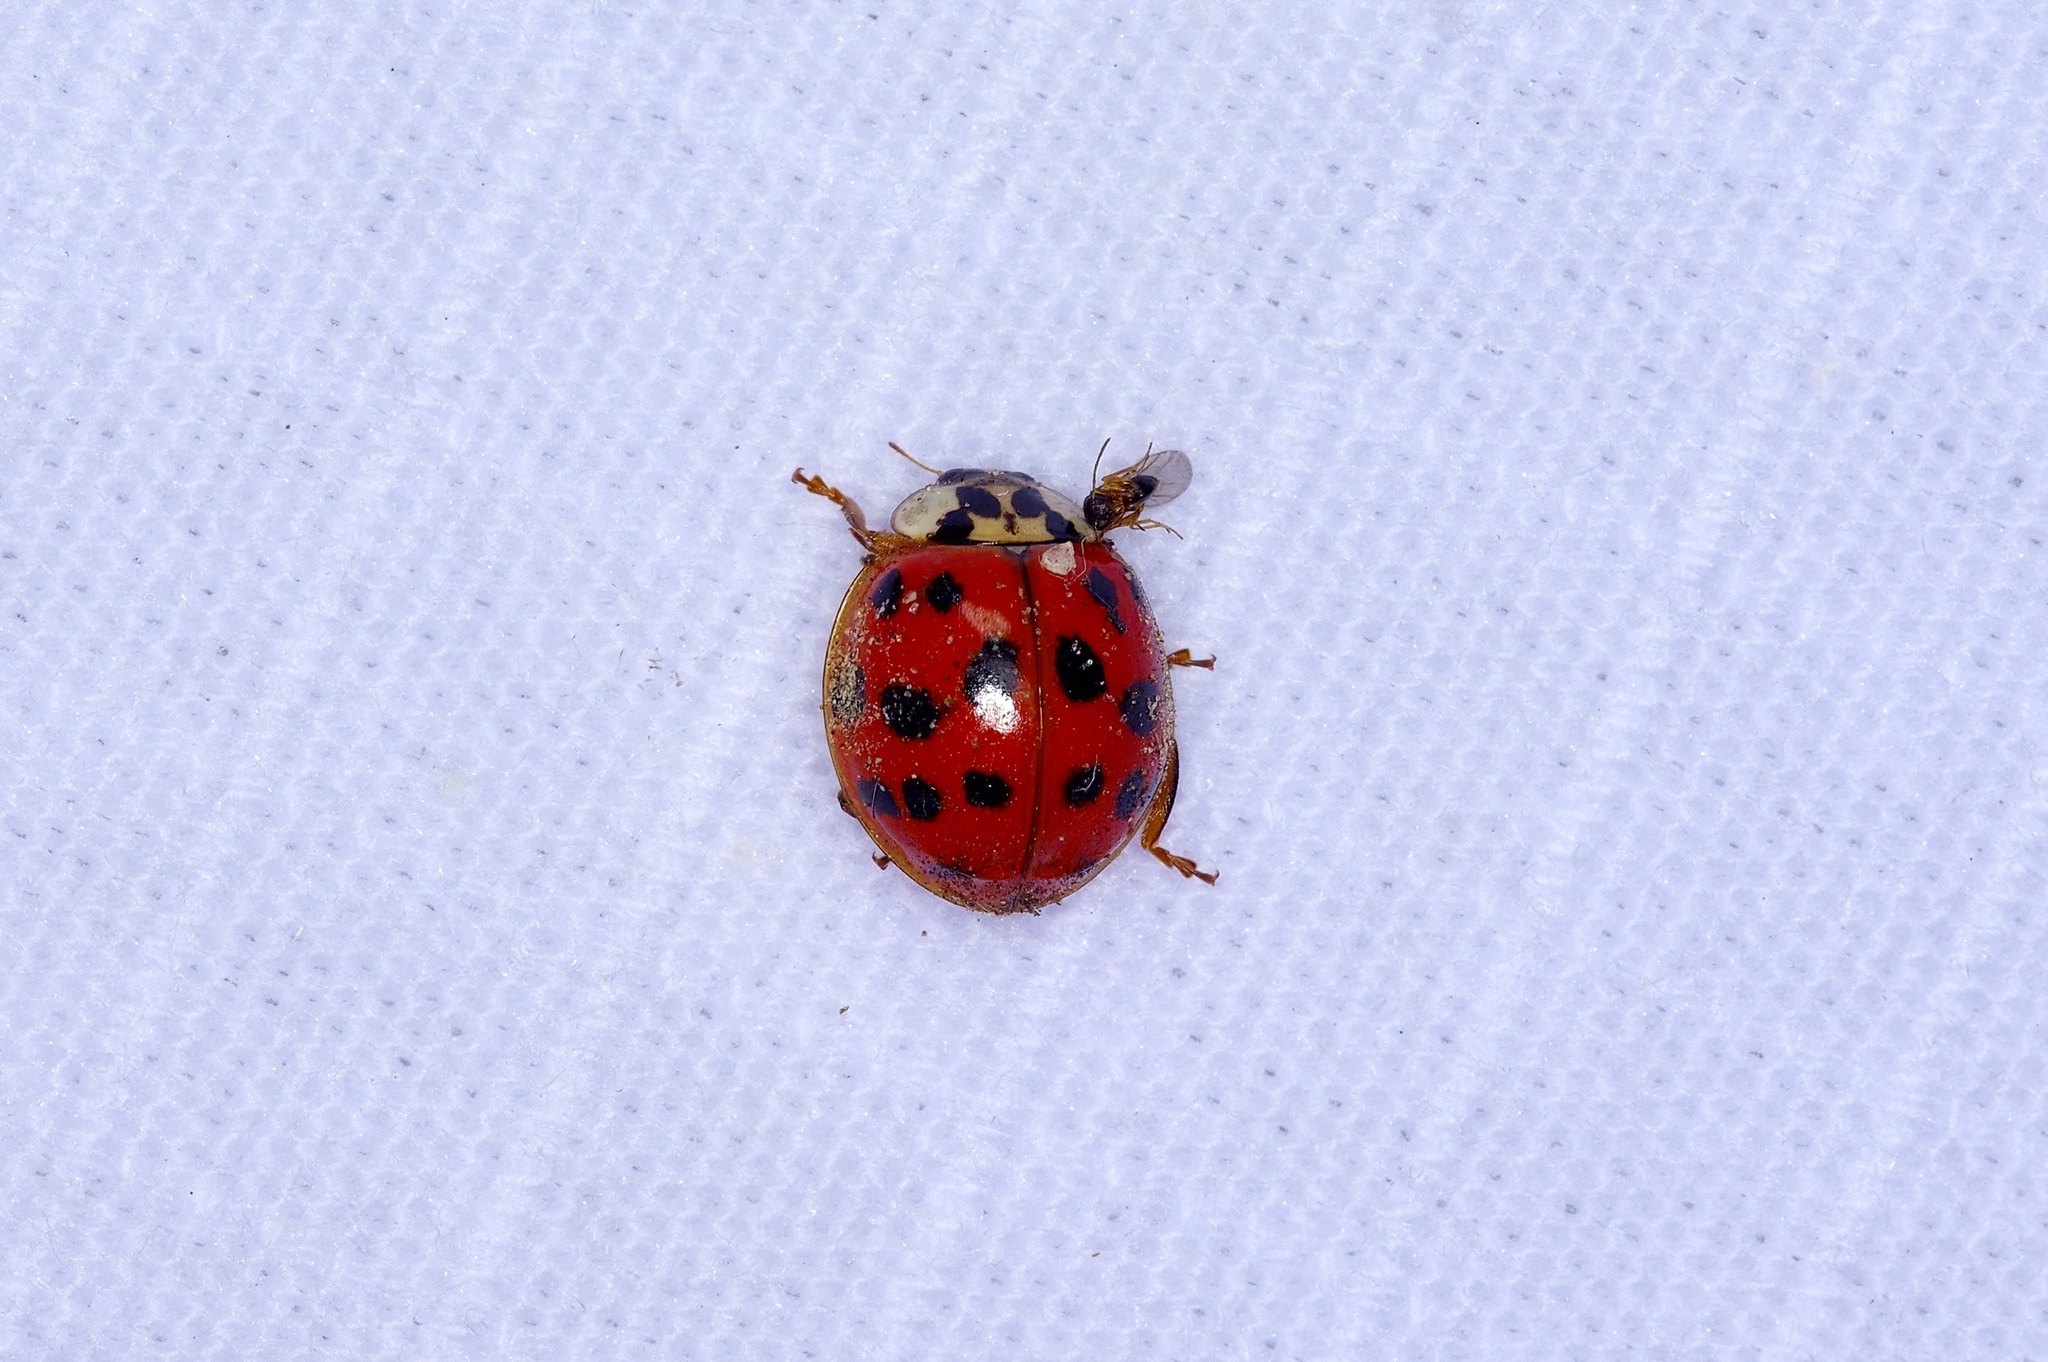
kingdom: Animalia
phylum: Arthropoda
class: Insecta
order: Coleoptera
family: Coccinellidae
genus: Harmonia
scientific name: Harmonia axyridis
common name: Harlequin ladybird
